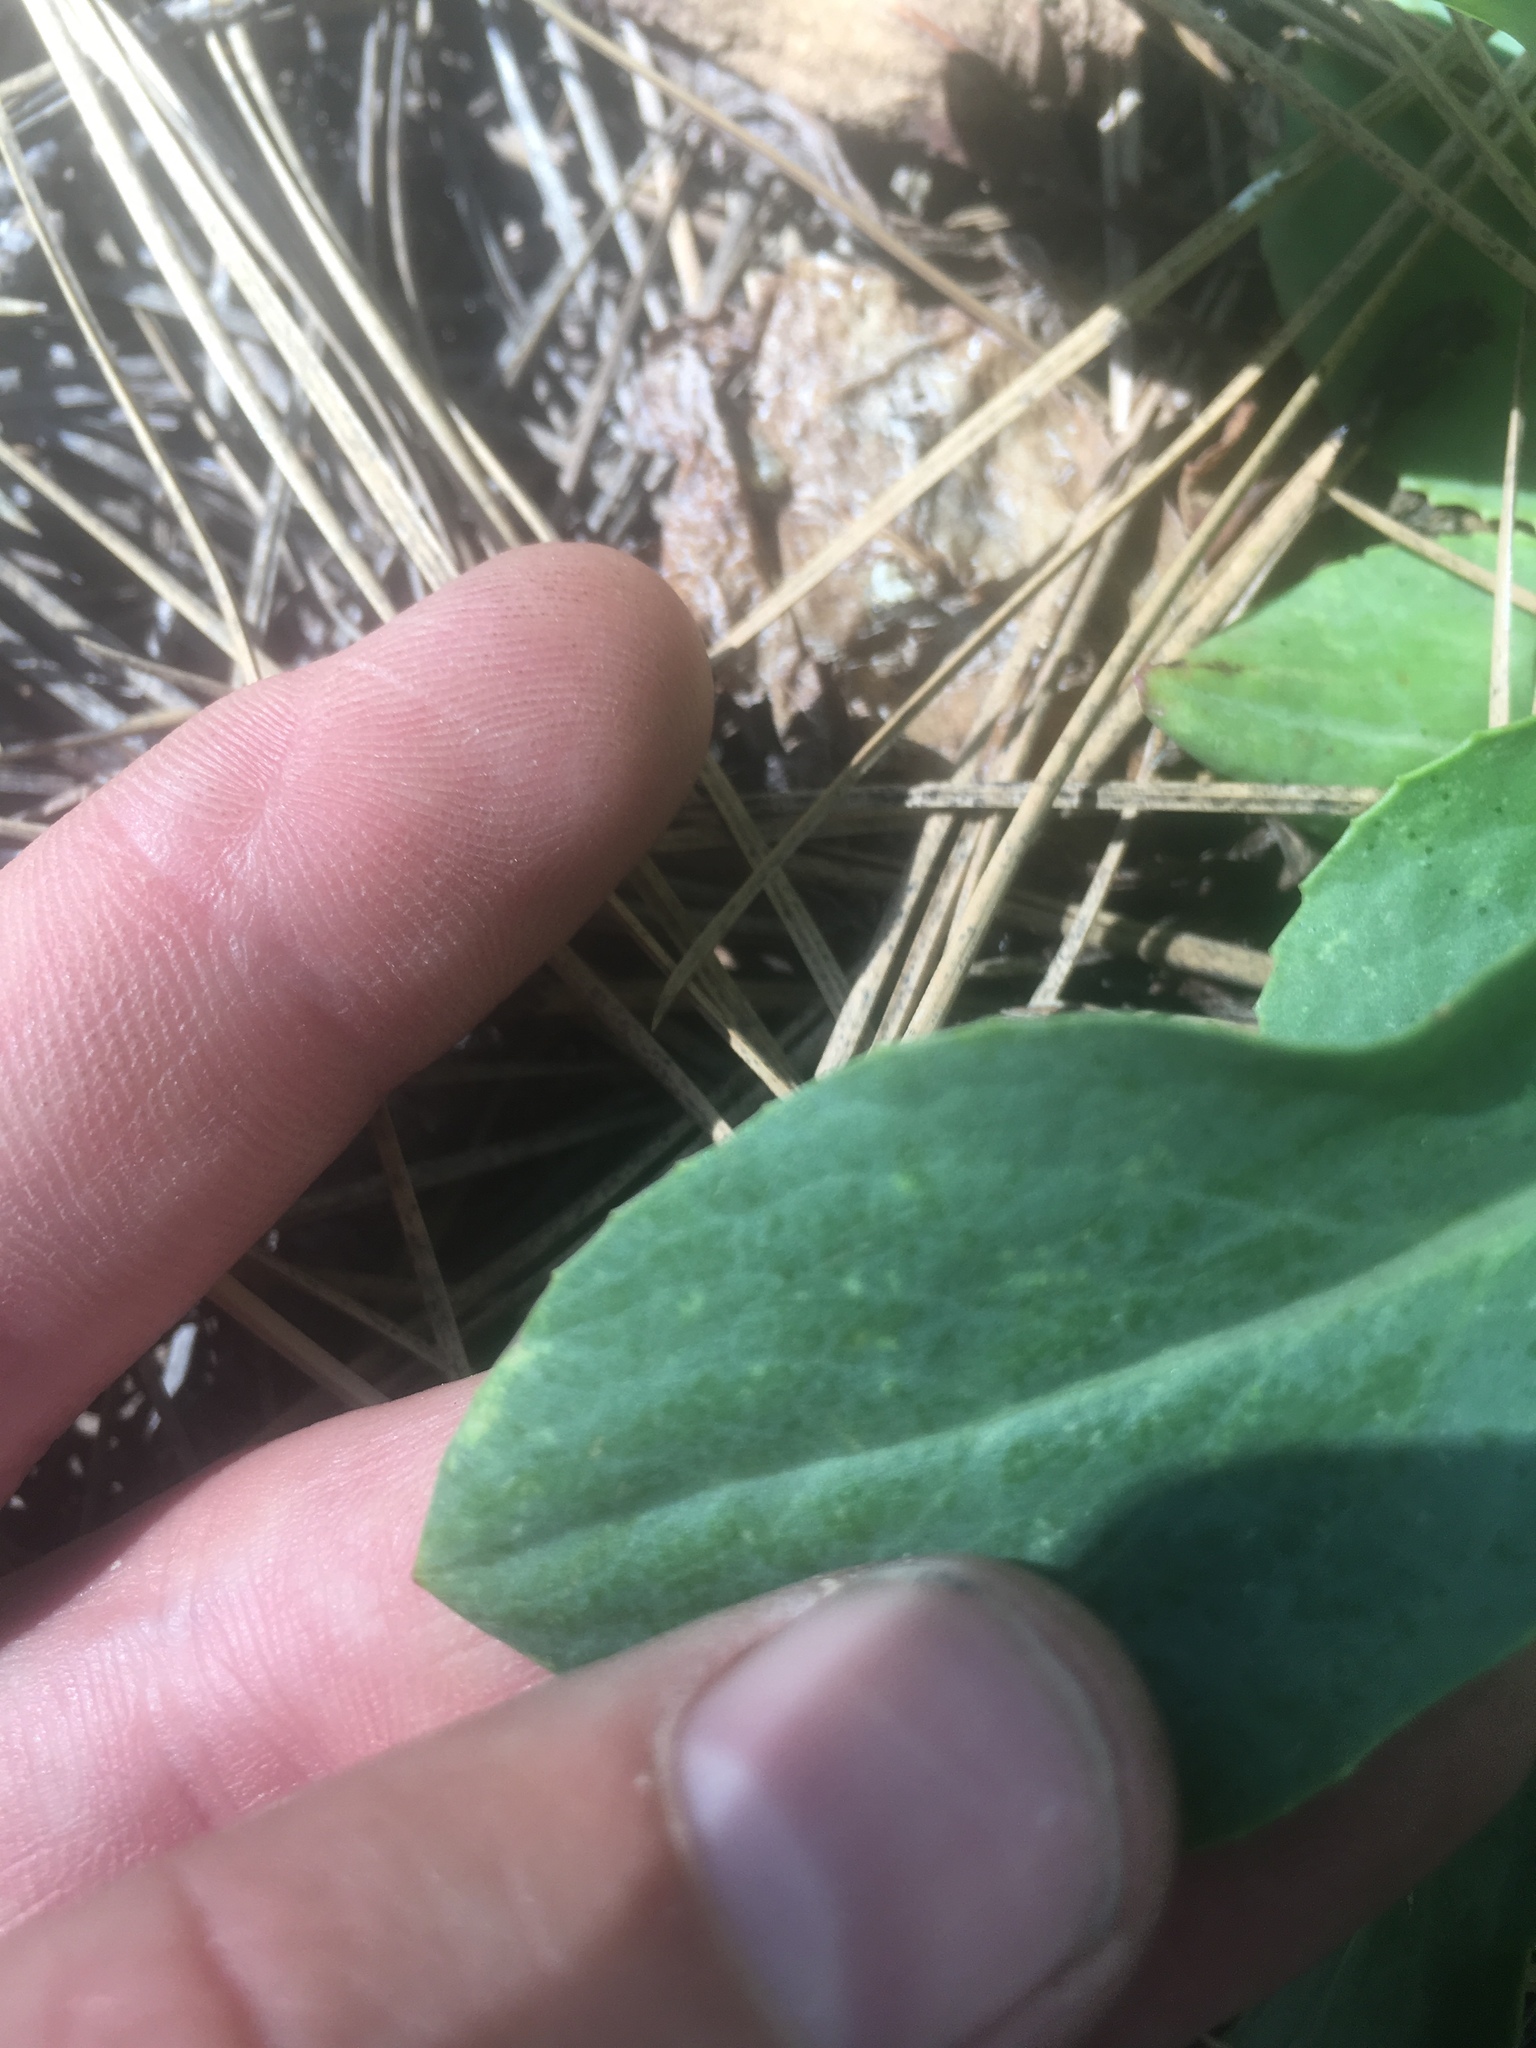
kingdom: Plantae
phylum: Tracheophyta
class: Magnoliopsida
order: Asterales
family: Asteraceae
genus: Senecio
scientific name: Senecio wootonii
